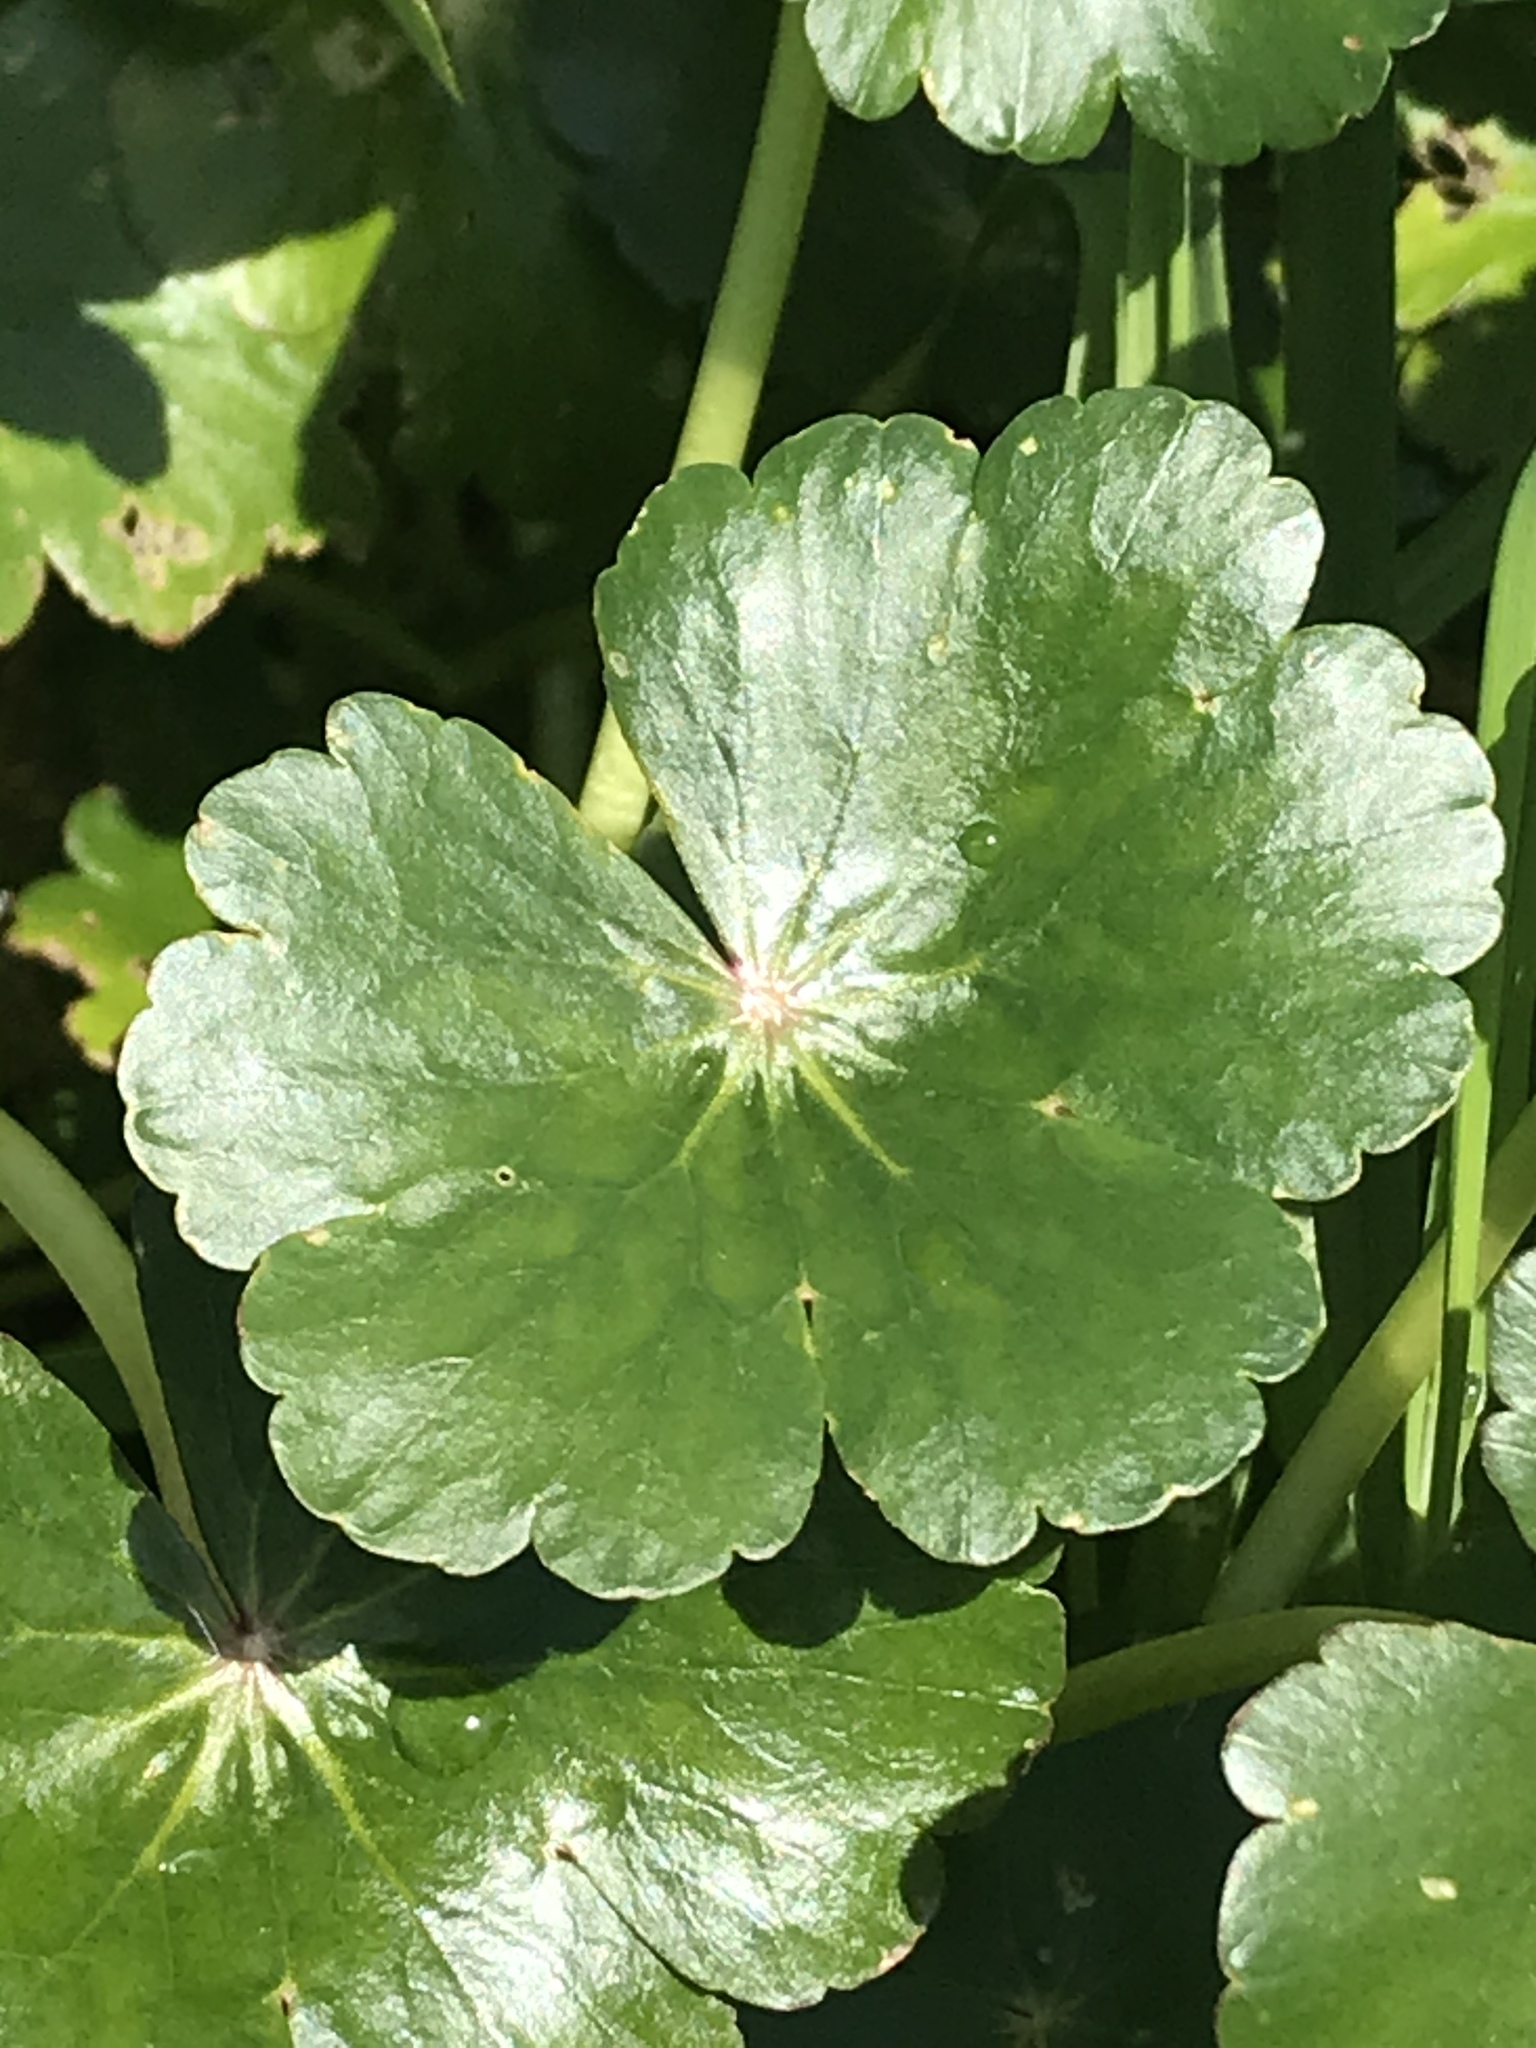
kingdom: Plantae
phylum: Tracheophyta
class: Magnoliopsida
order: Apiales
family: Araliaceae
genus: Hydrocotyle
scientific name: Hydrocotyle ranunculoides
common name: Floating pennywort
